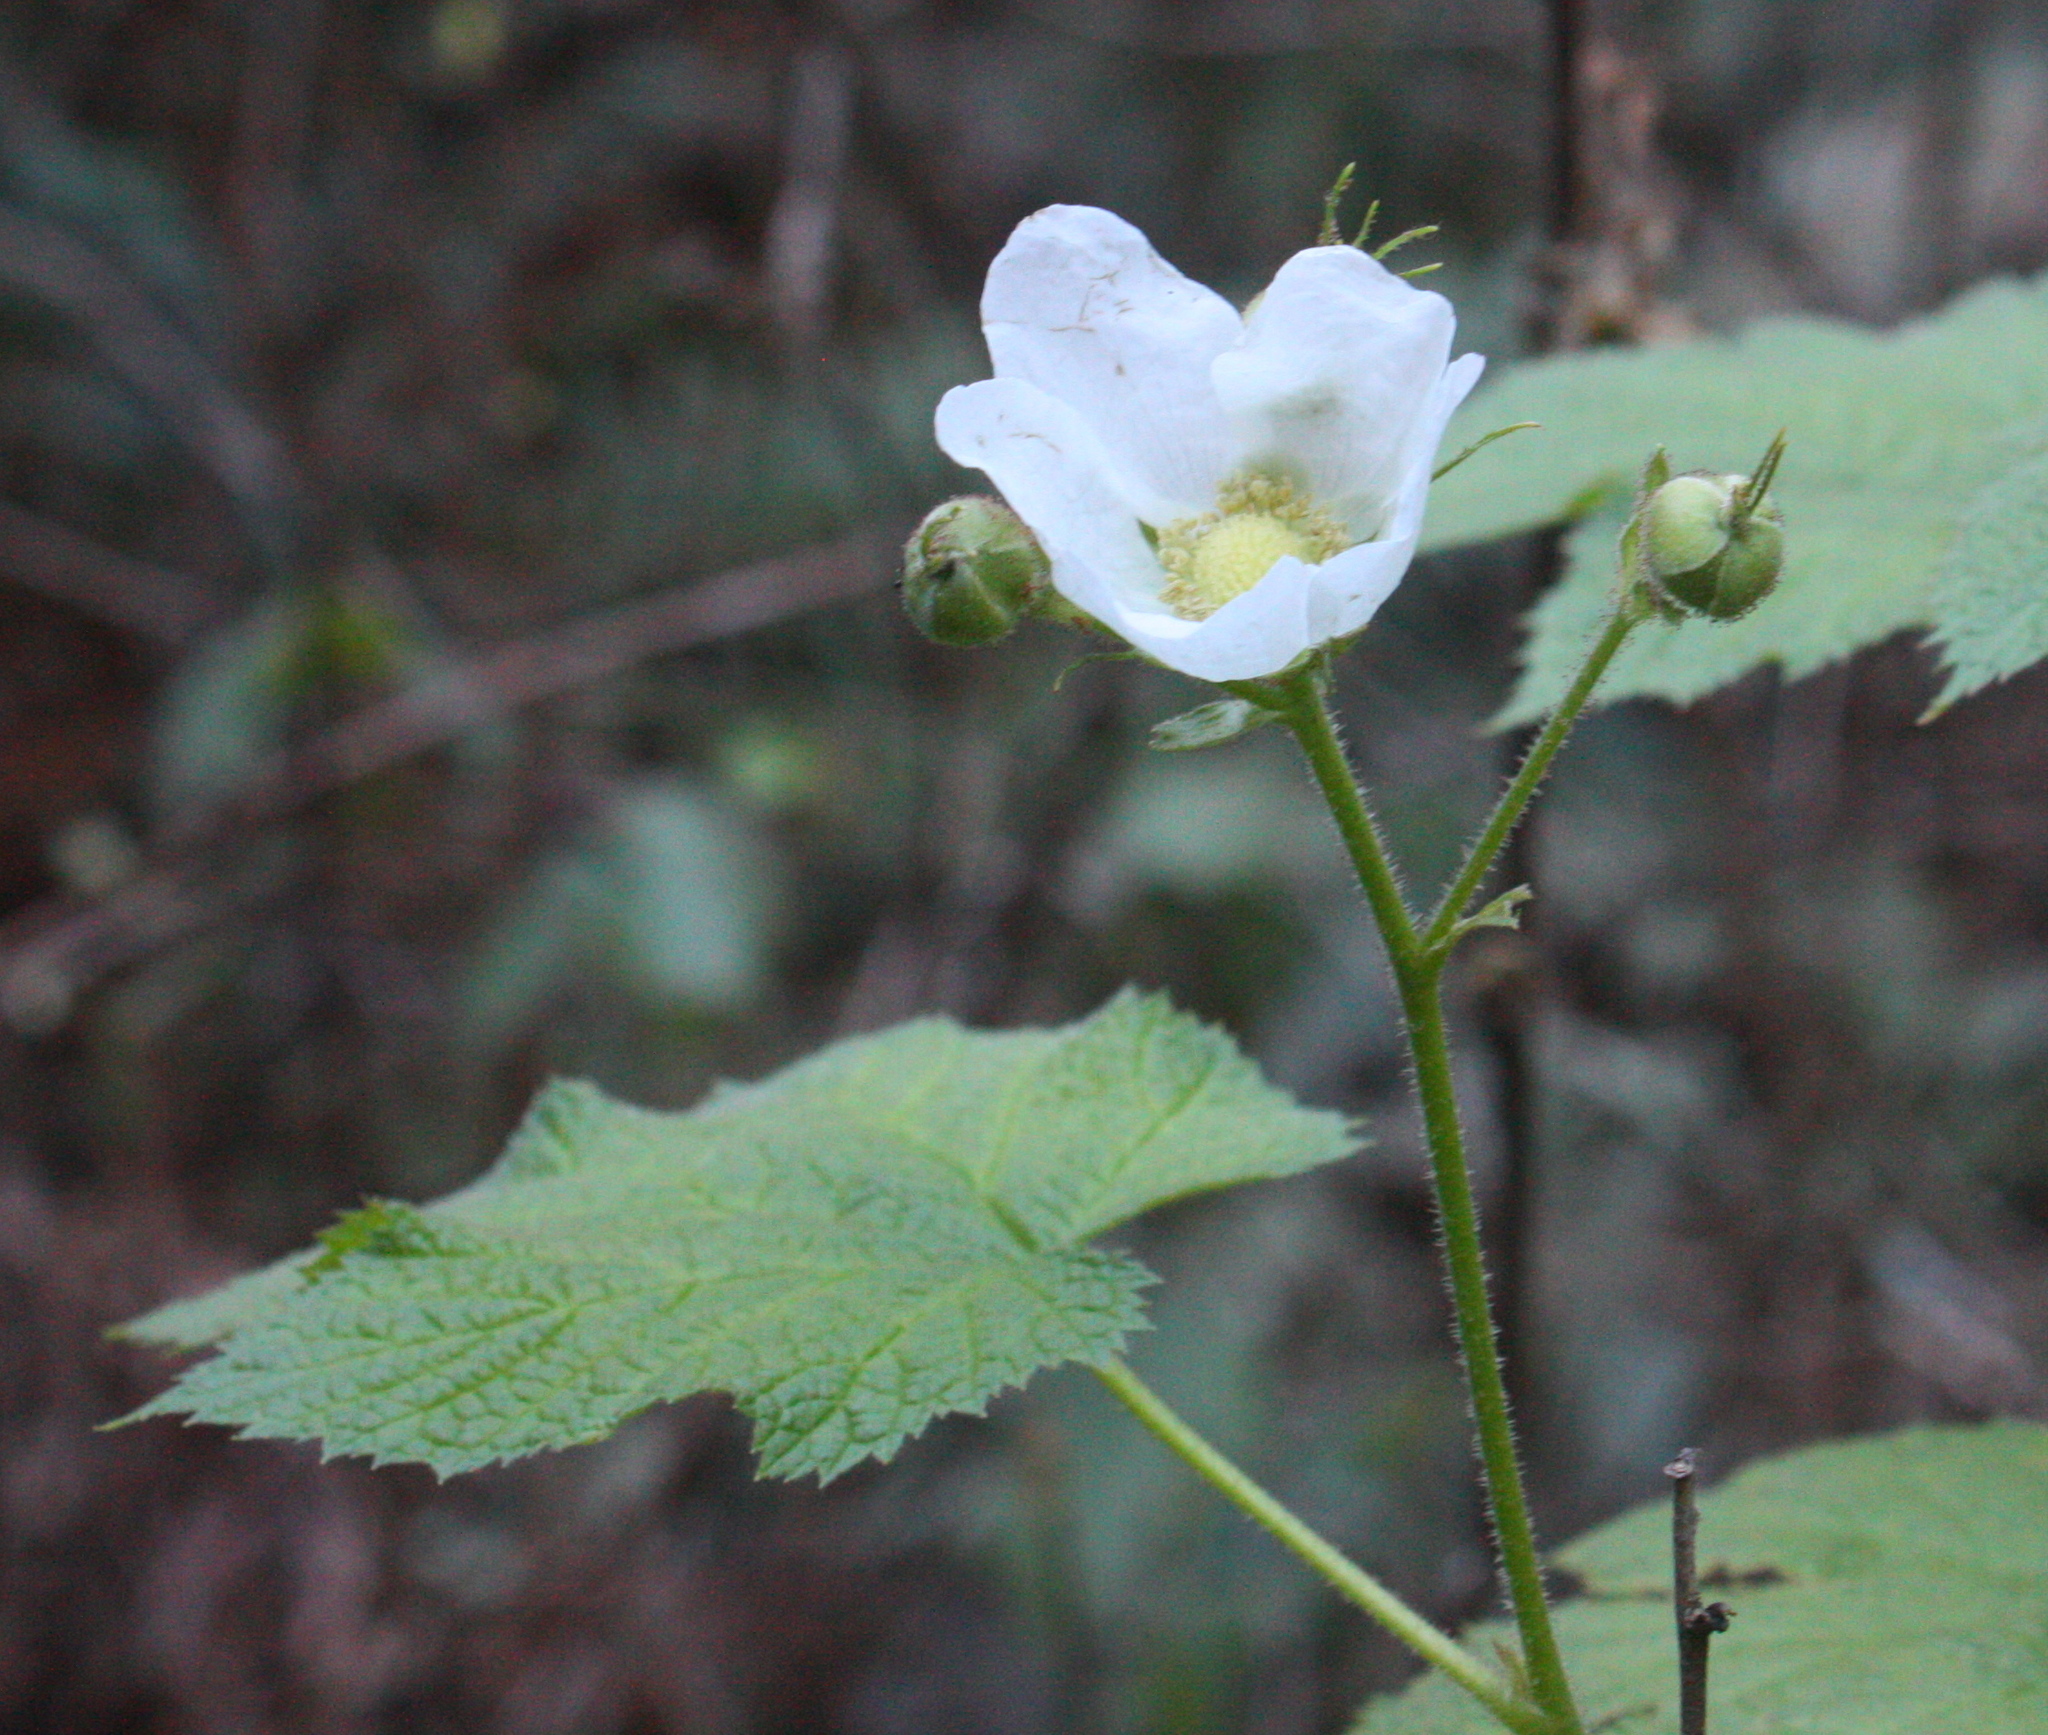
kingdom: Plantae
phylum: Tracheophyta
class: Magnoliopsida
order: Rosales
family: Rosaceae
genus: Rubus
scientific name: Rubus parviflorus
